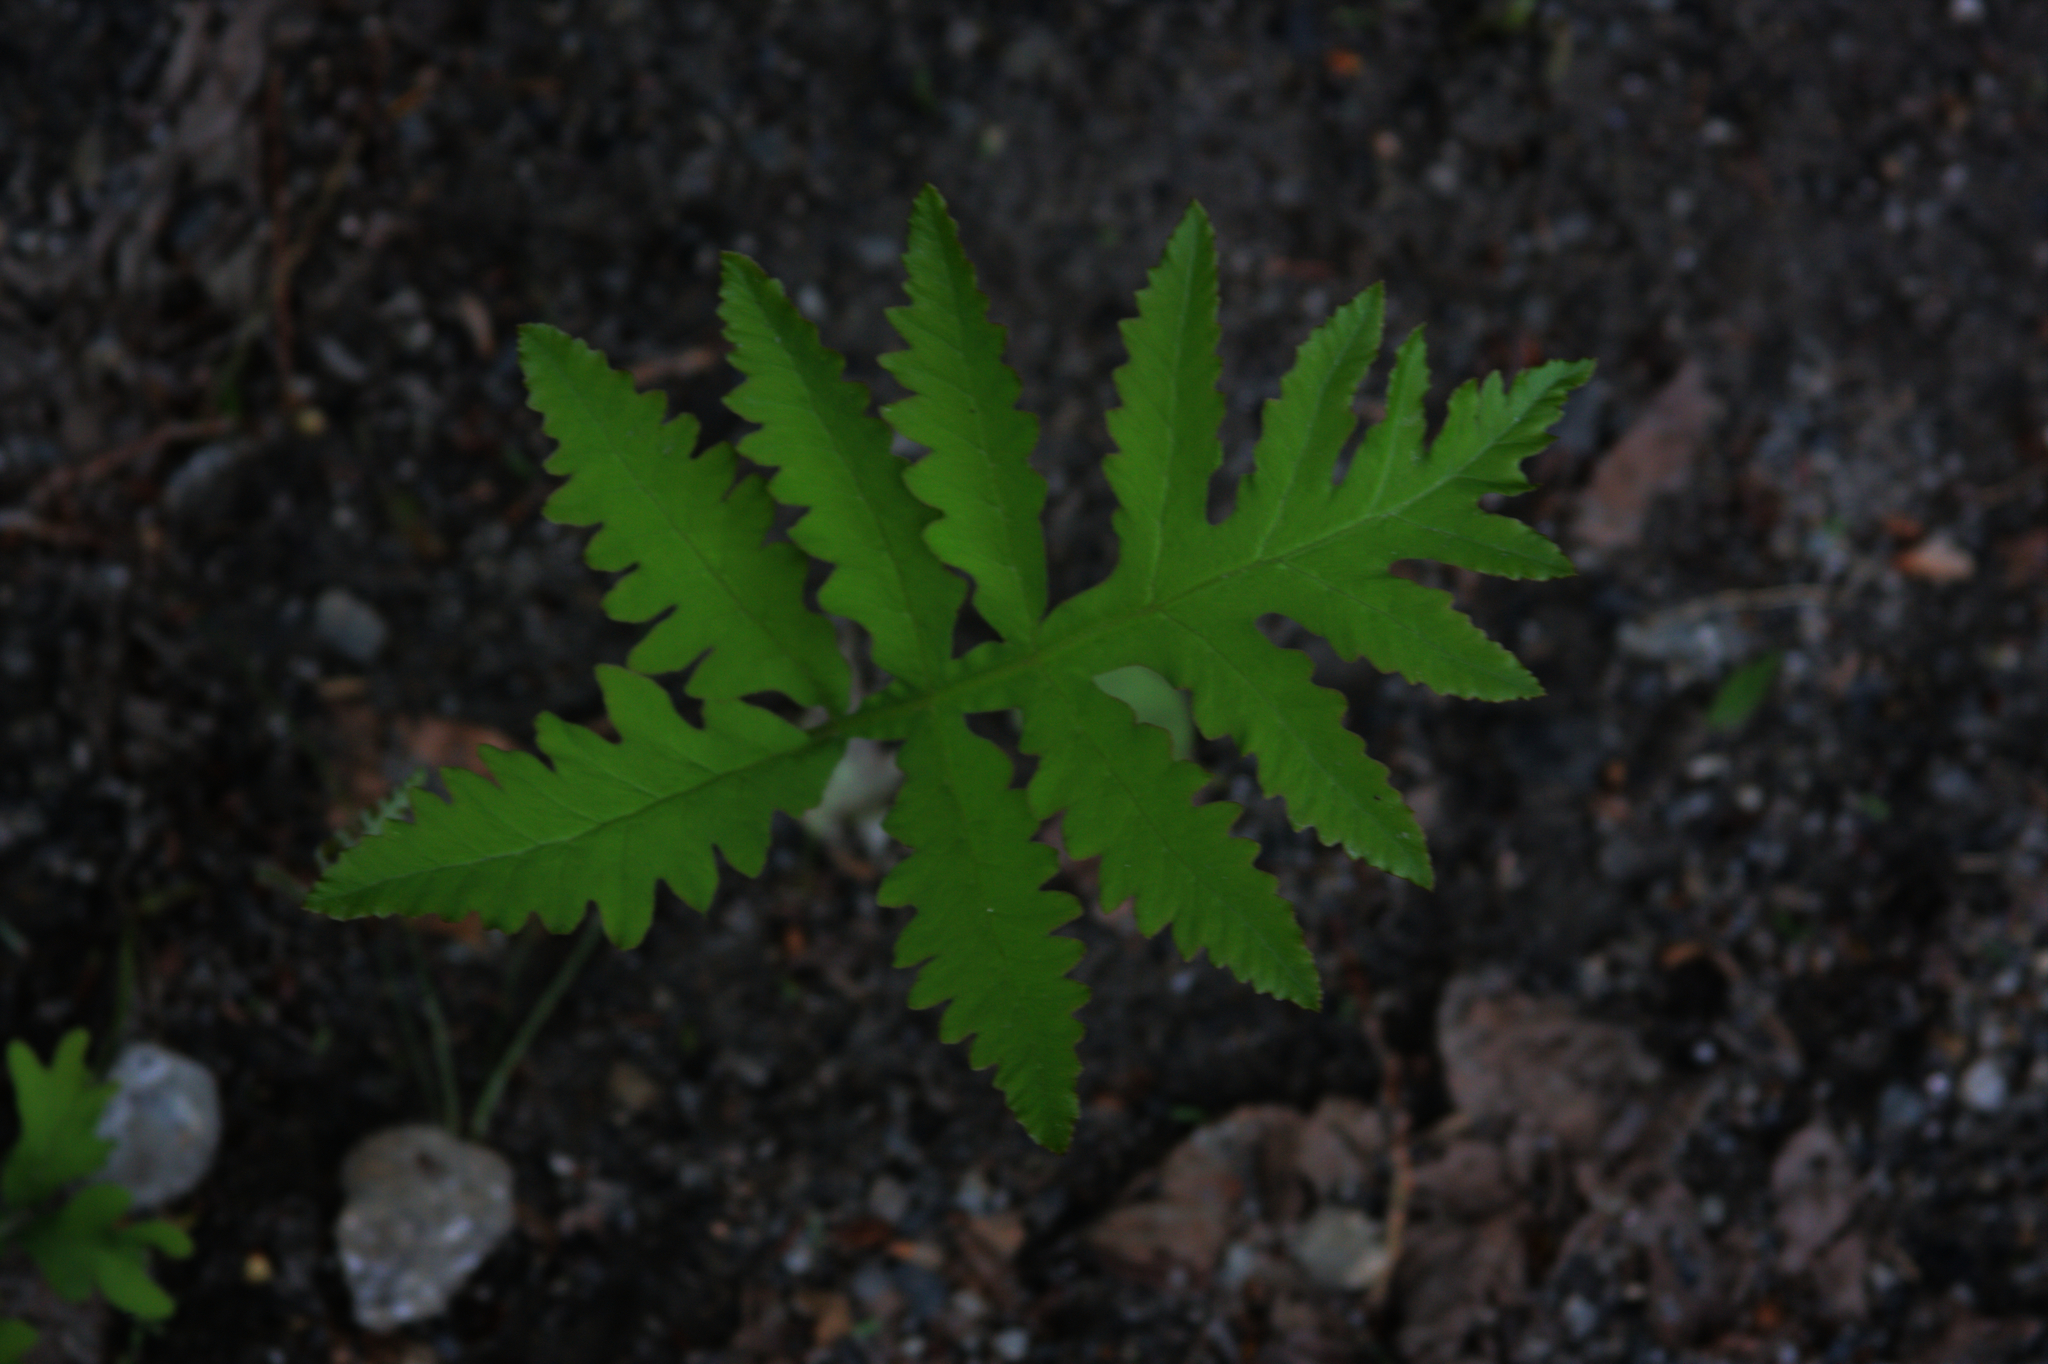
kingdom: Plantae
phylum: Tracheophyta
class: Polypodiopsida
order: Polypodiales
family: Onocleaceae
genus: Onoclea
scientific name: Onoclea sensibilis
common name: Sensitive fern
